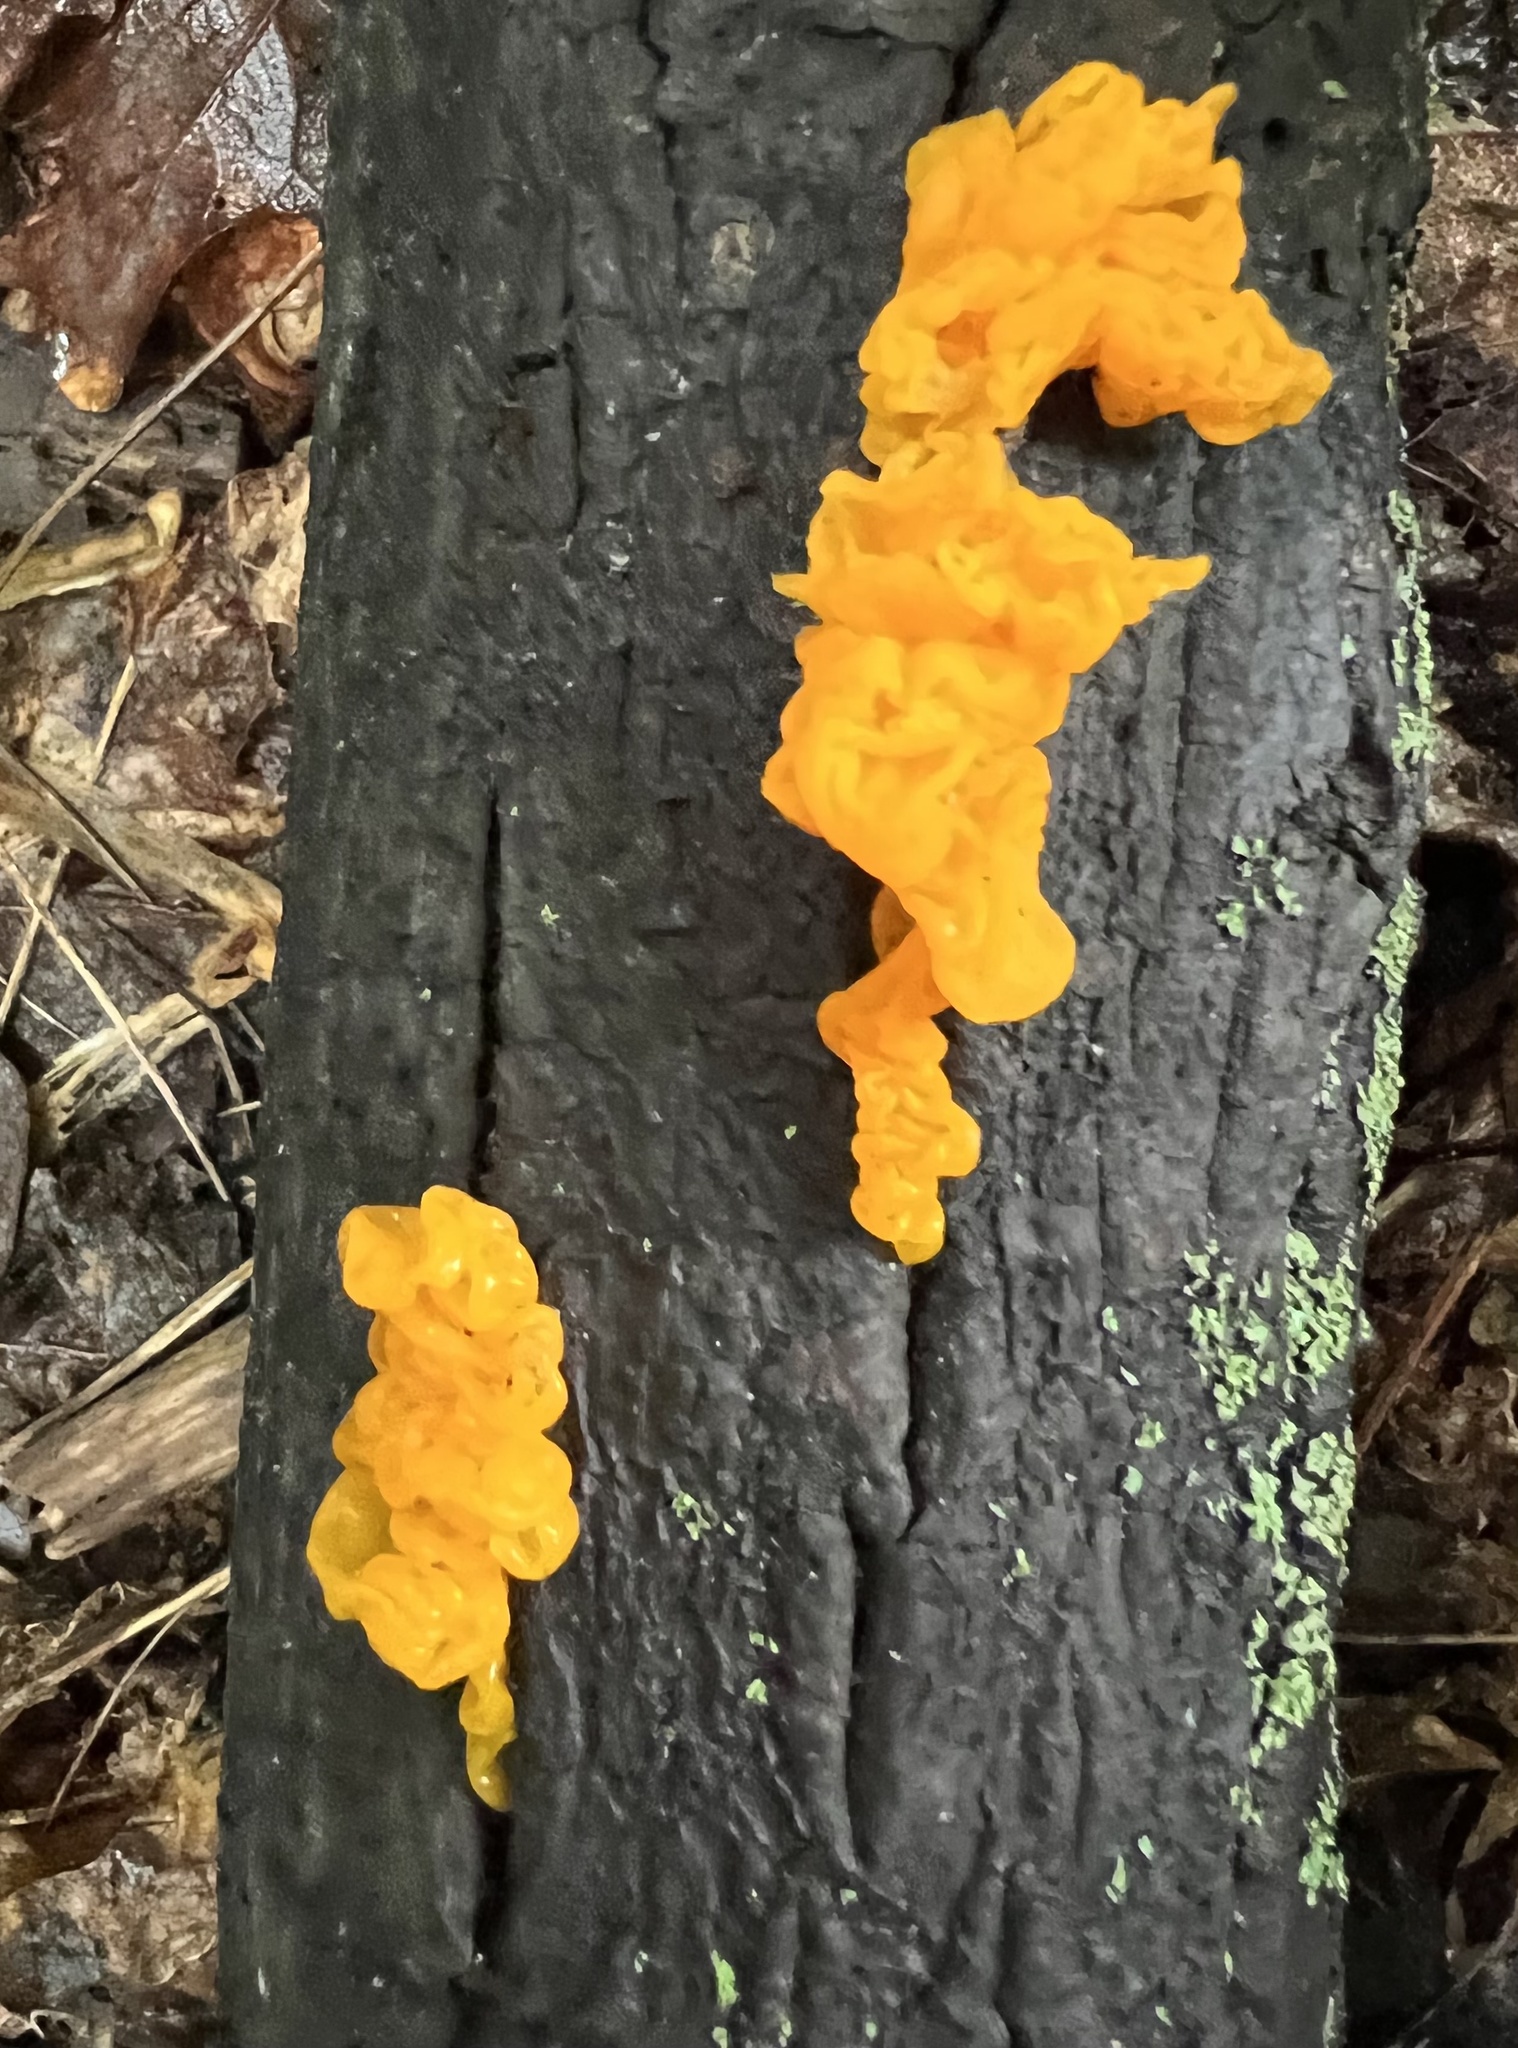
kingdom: Fungi
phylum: Basidiomycota
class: Tremellomycetes
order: Tremellales
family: Tremellaceae
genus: Tremella
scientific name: Tremella mesenterica
